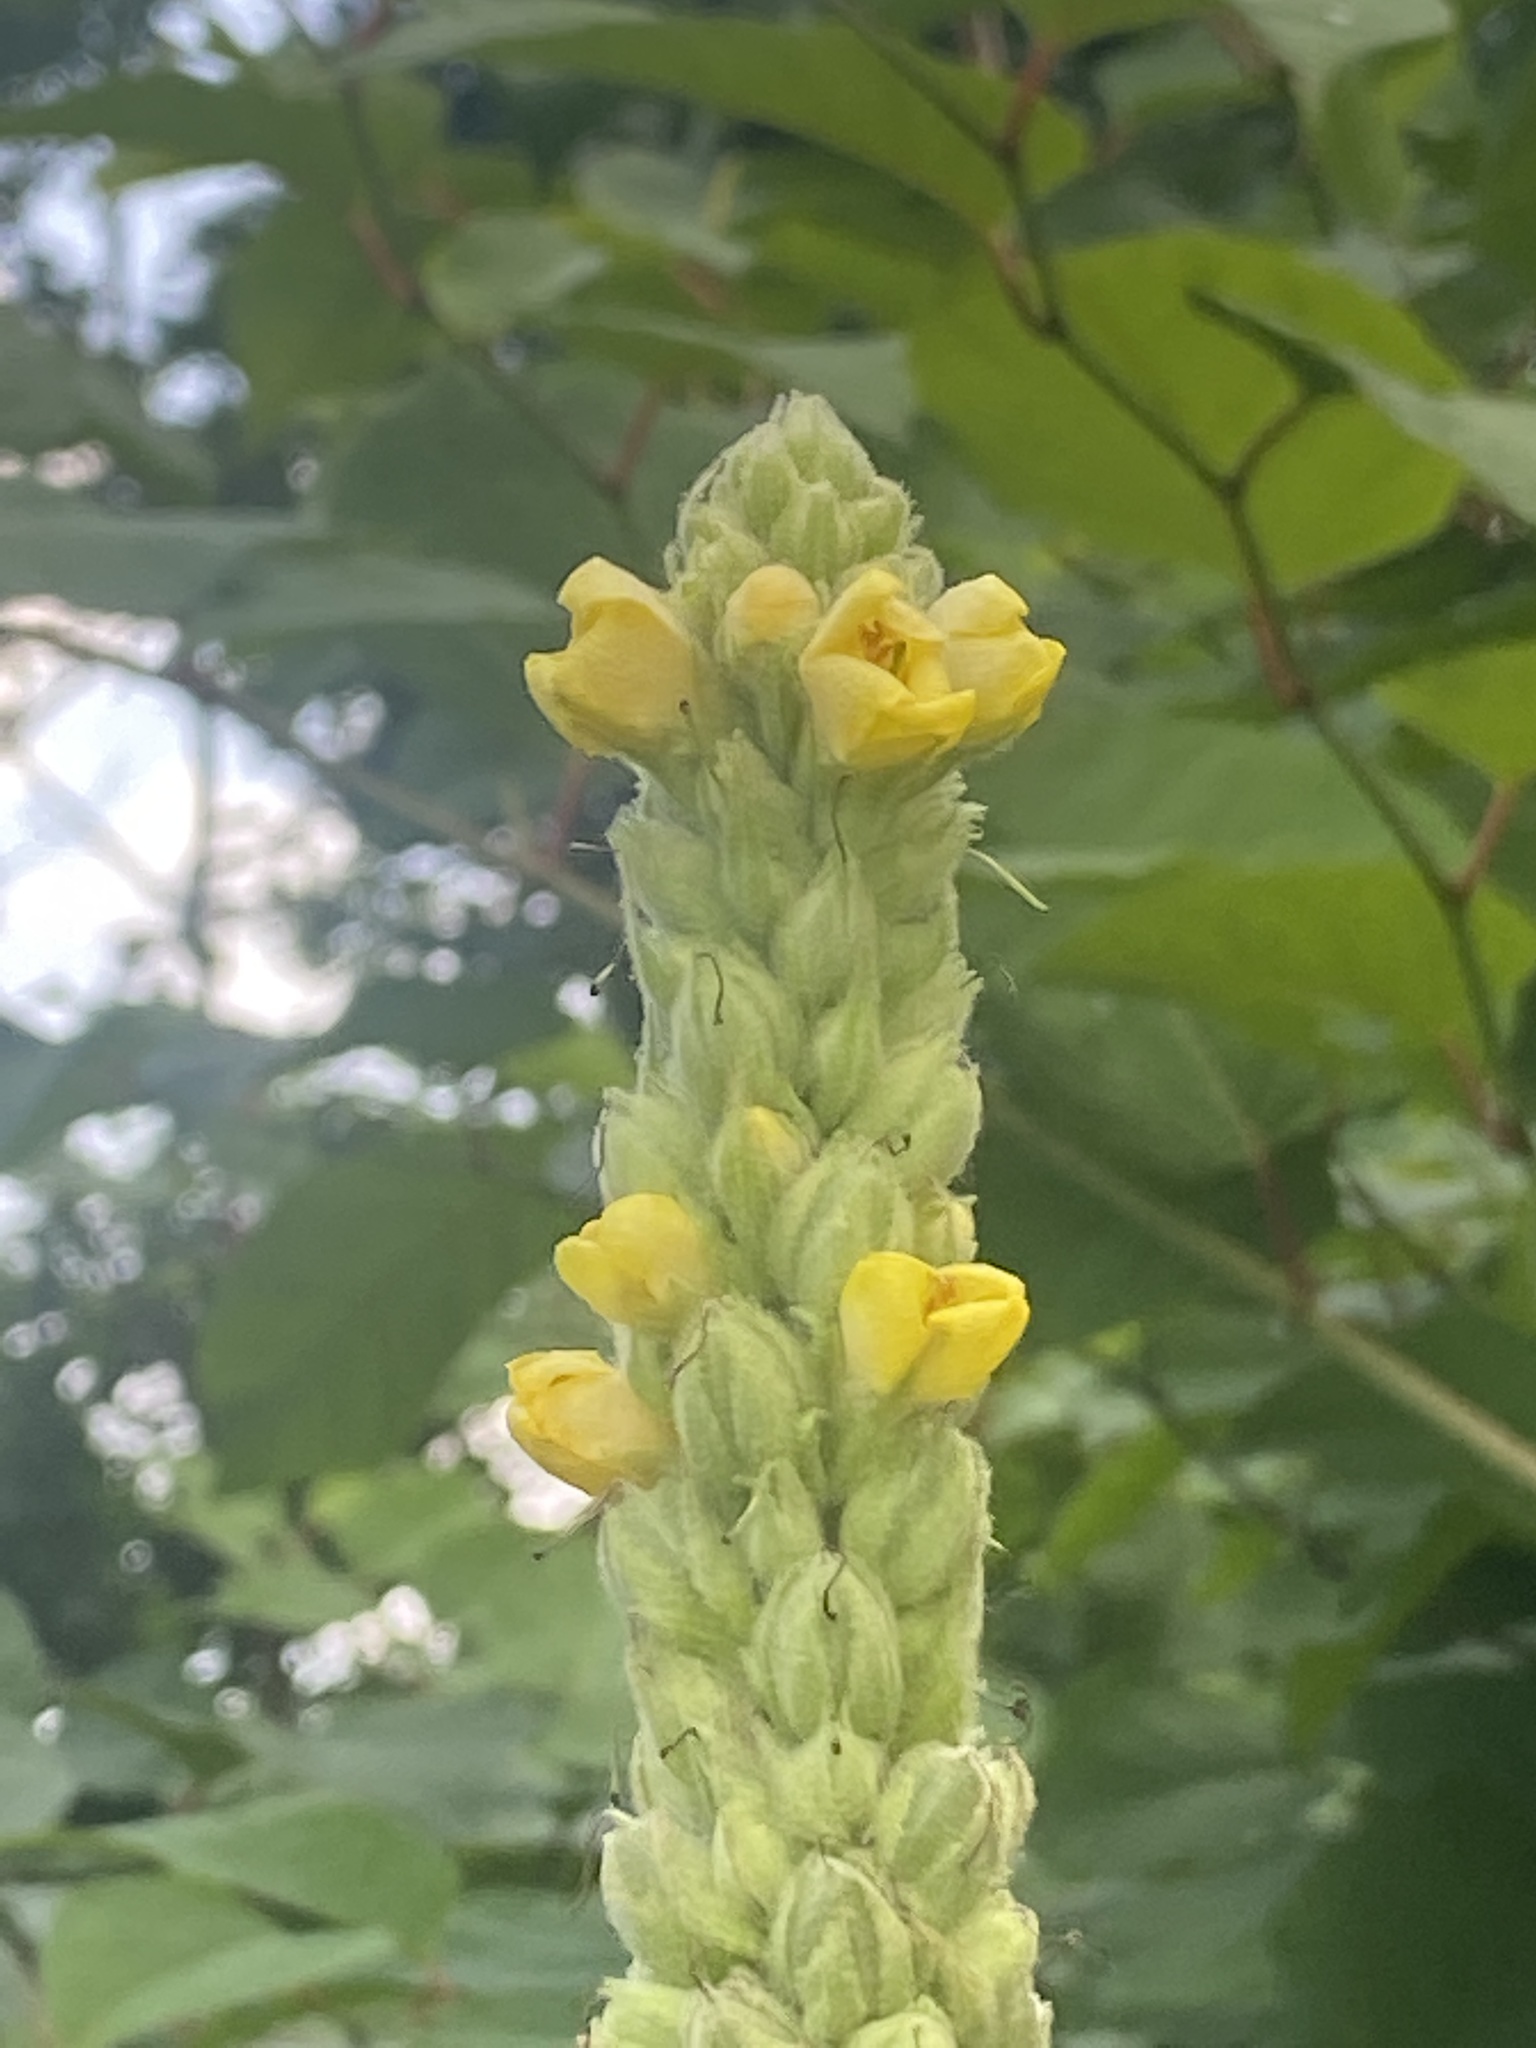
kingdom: Plantae
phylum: Tracheophyta
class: Magnoliopsida
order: Lamiales
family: Scrophulariaceae
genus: Verbascum
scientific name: Verbascum thapsus
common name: Common mullein
